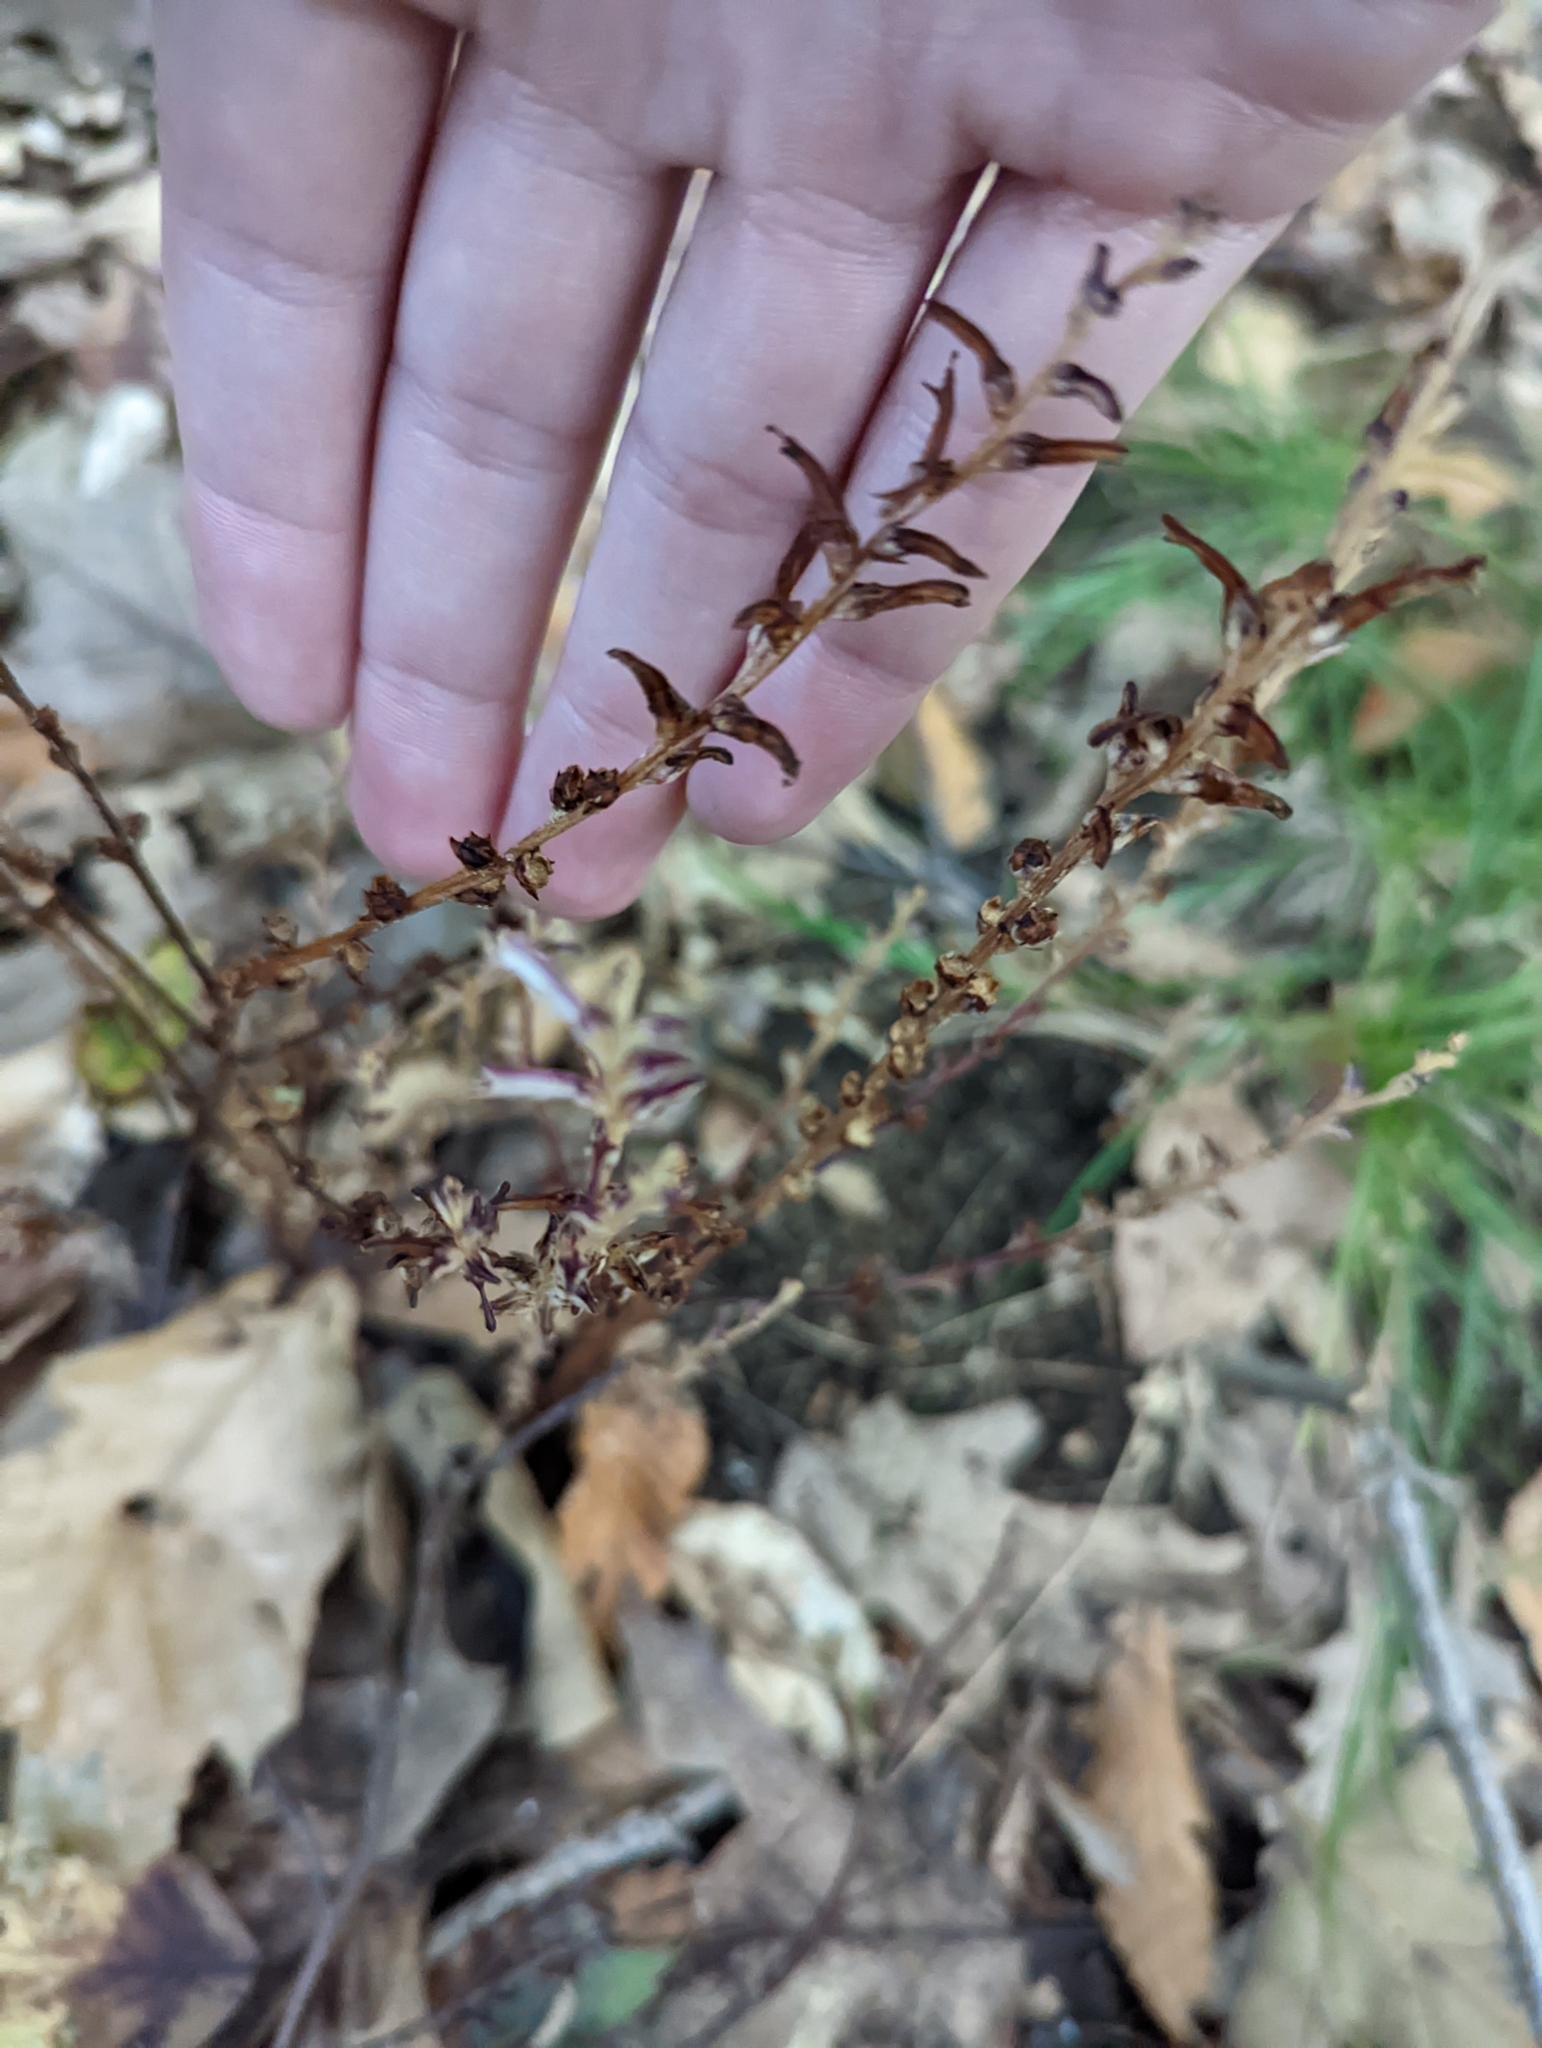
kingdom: Plantae
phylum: Tracheophyta
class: Magnoliopsida
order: Lamiales
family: Orobanchaceae
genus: Epifagus
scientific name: Epifagus virginiana
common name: Beechdrops
